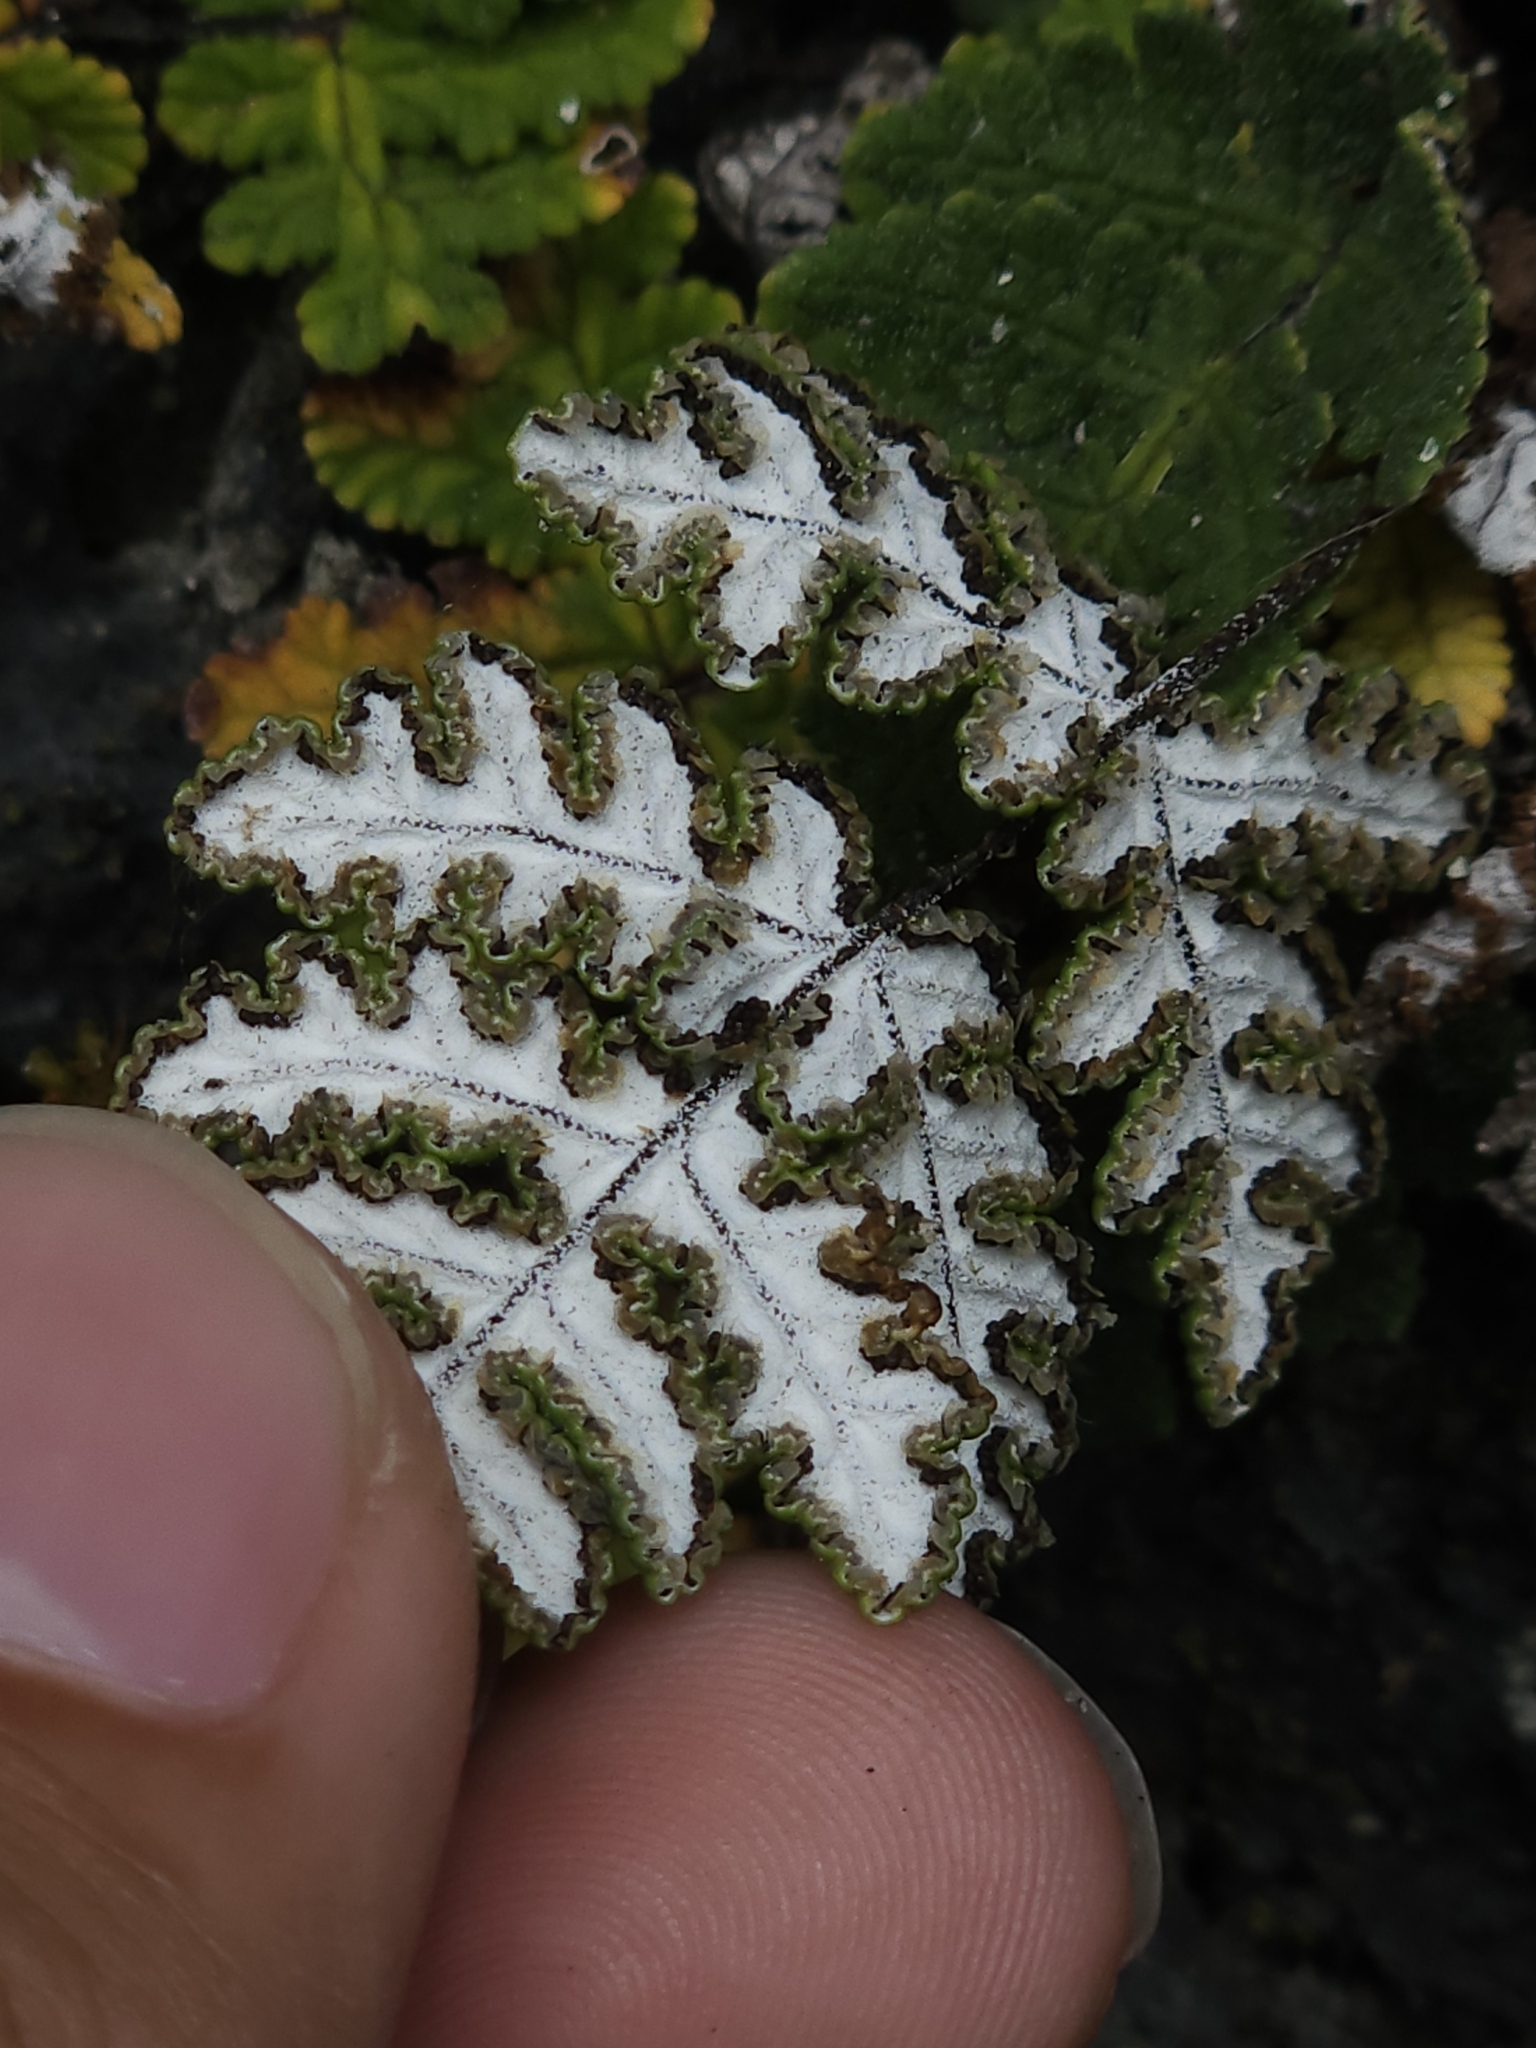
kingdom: Plantae
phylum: Tracheophyta
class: Polypodiopsida
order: Polypodiales
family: Pteridaceae
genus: Aleuritopteris
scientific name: Aleuritopteris krameri
